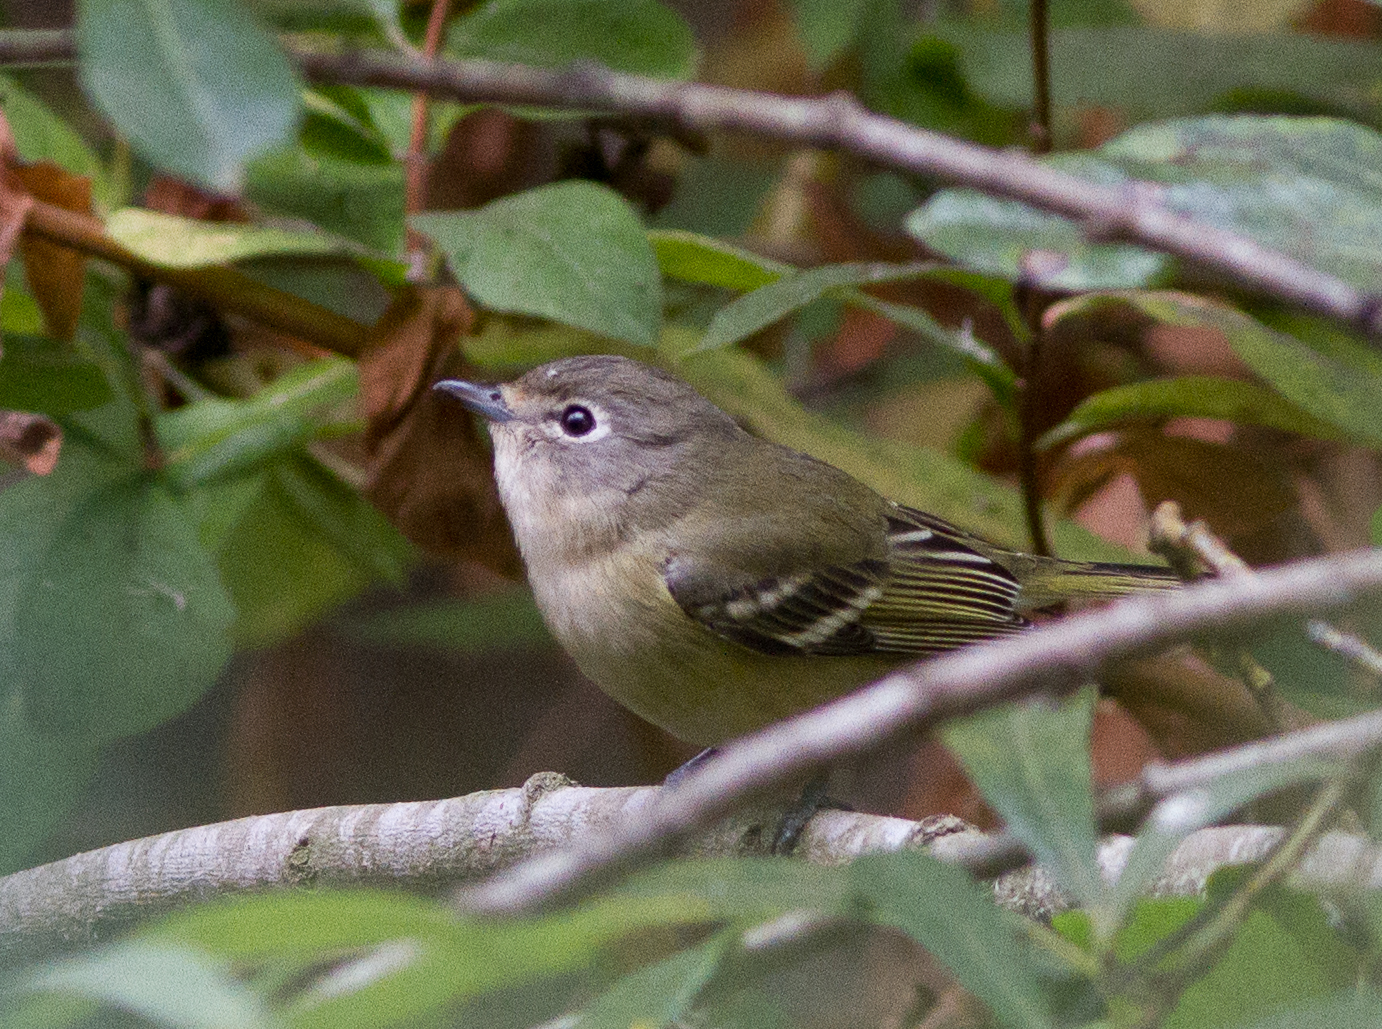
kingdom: Animalia
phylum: Chordata
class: Aves
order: Passeriformes
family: Vireonidae
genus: Vireo
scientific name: Vireo cassinii
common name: Cassin's vireo
